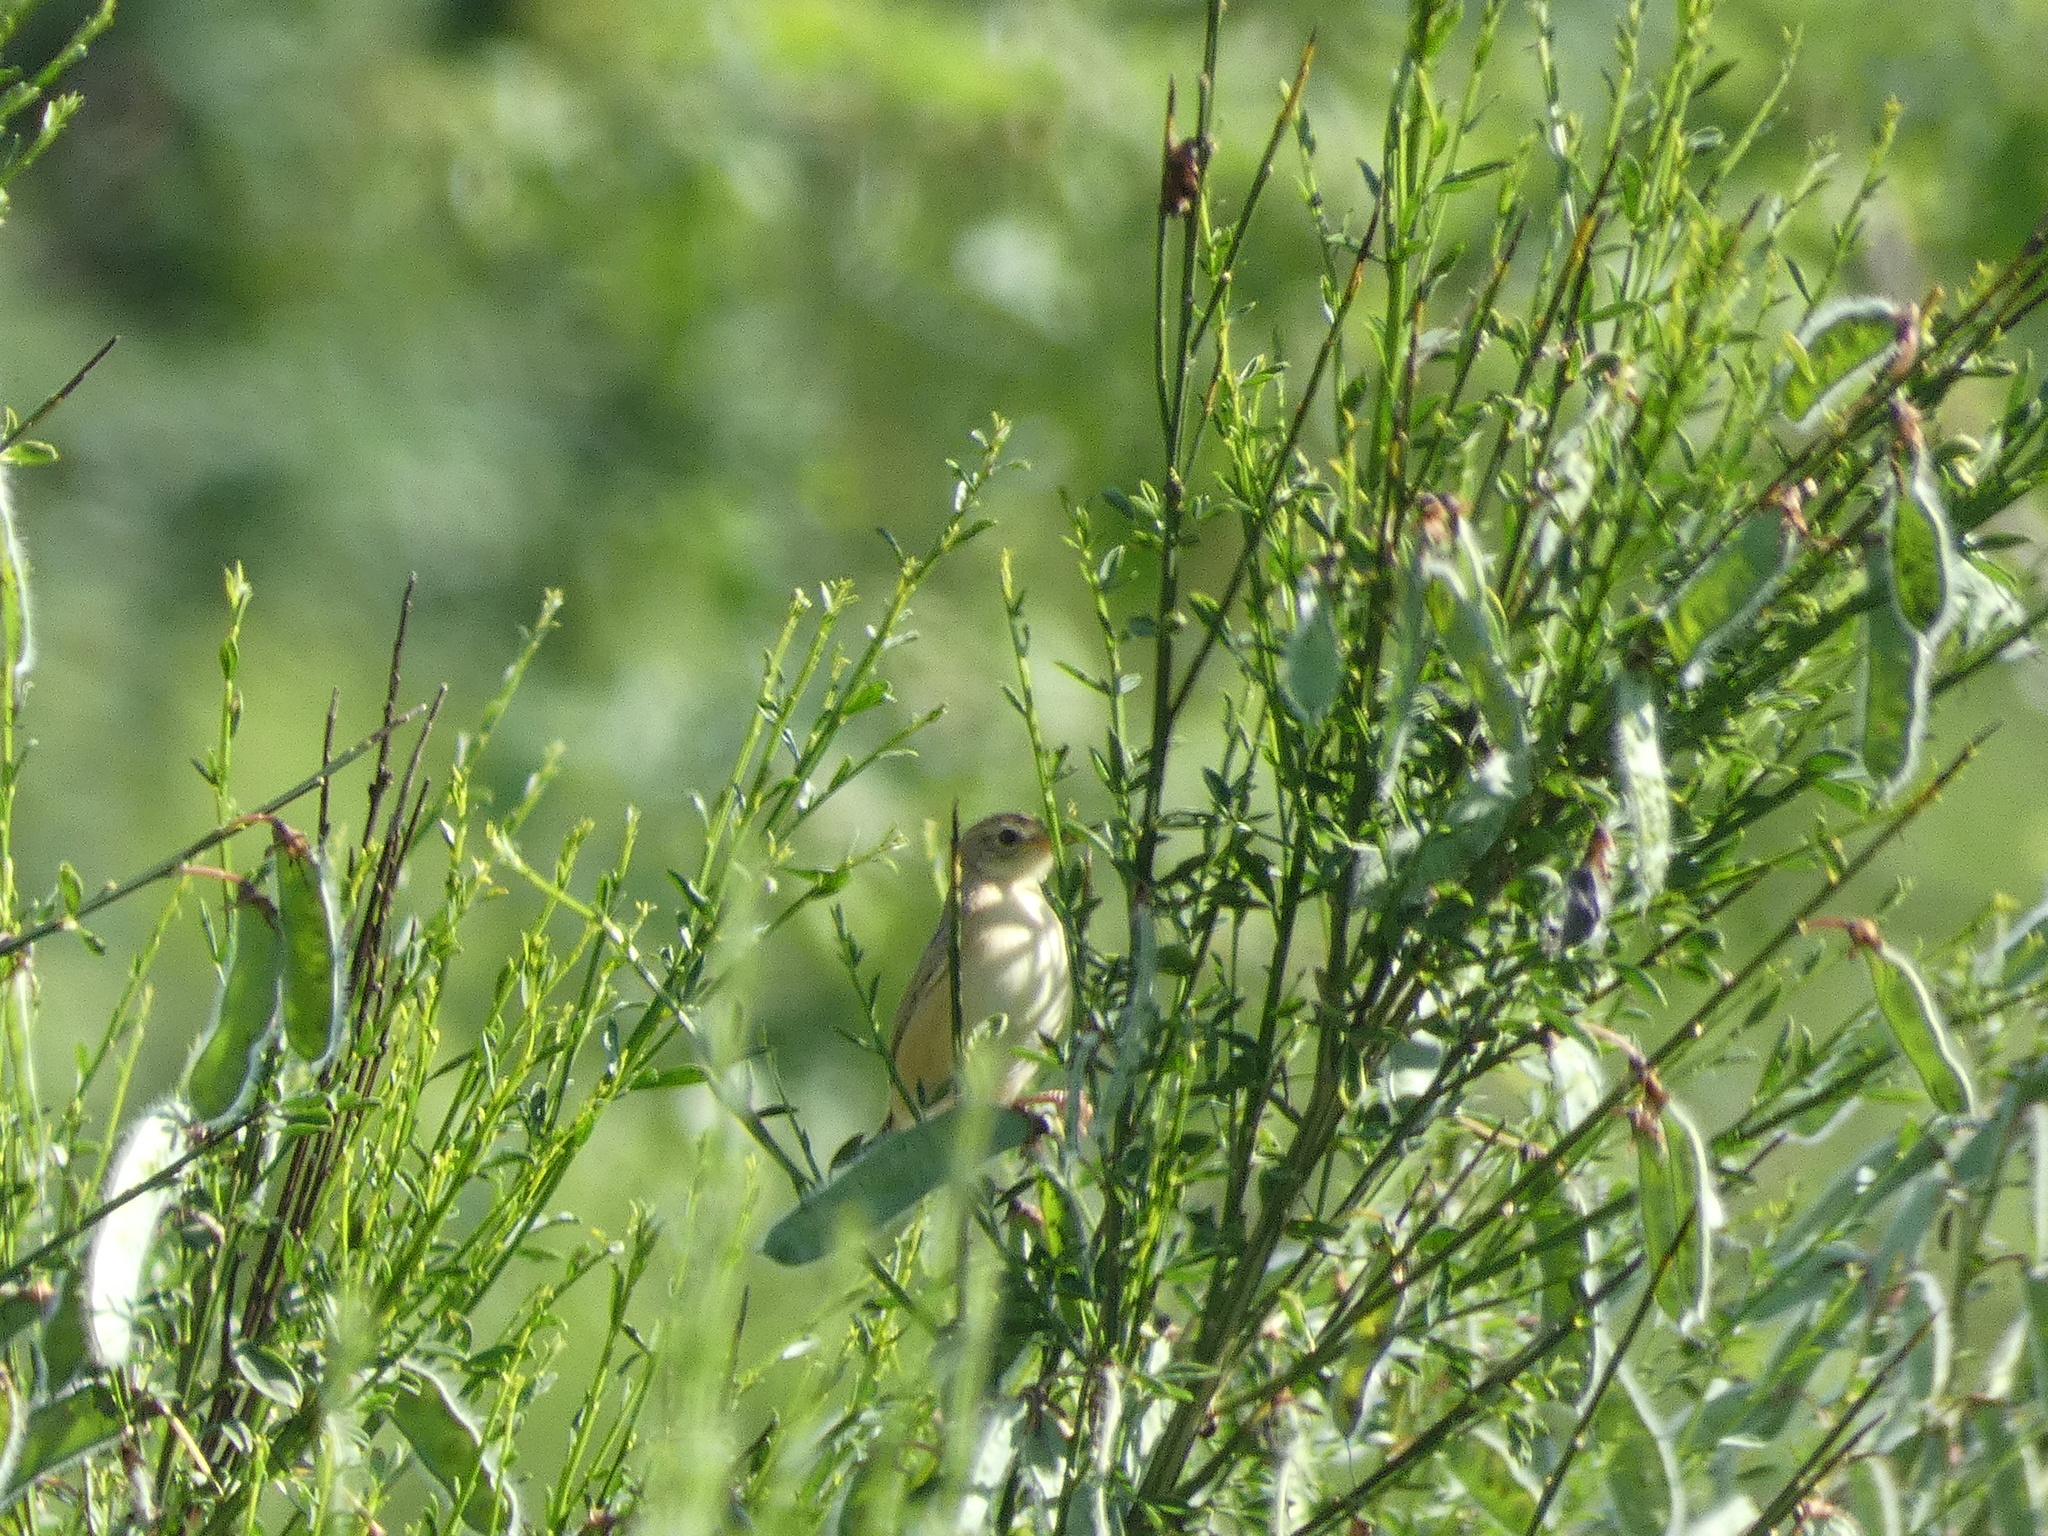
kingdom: Animalia
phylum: Chordata
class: Aves
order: Passeriformes
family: Cisticolidae
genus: Cisticola
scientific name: Cisticola juncidis
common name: Zitting cisticola
